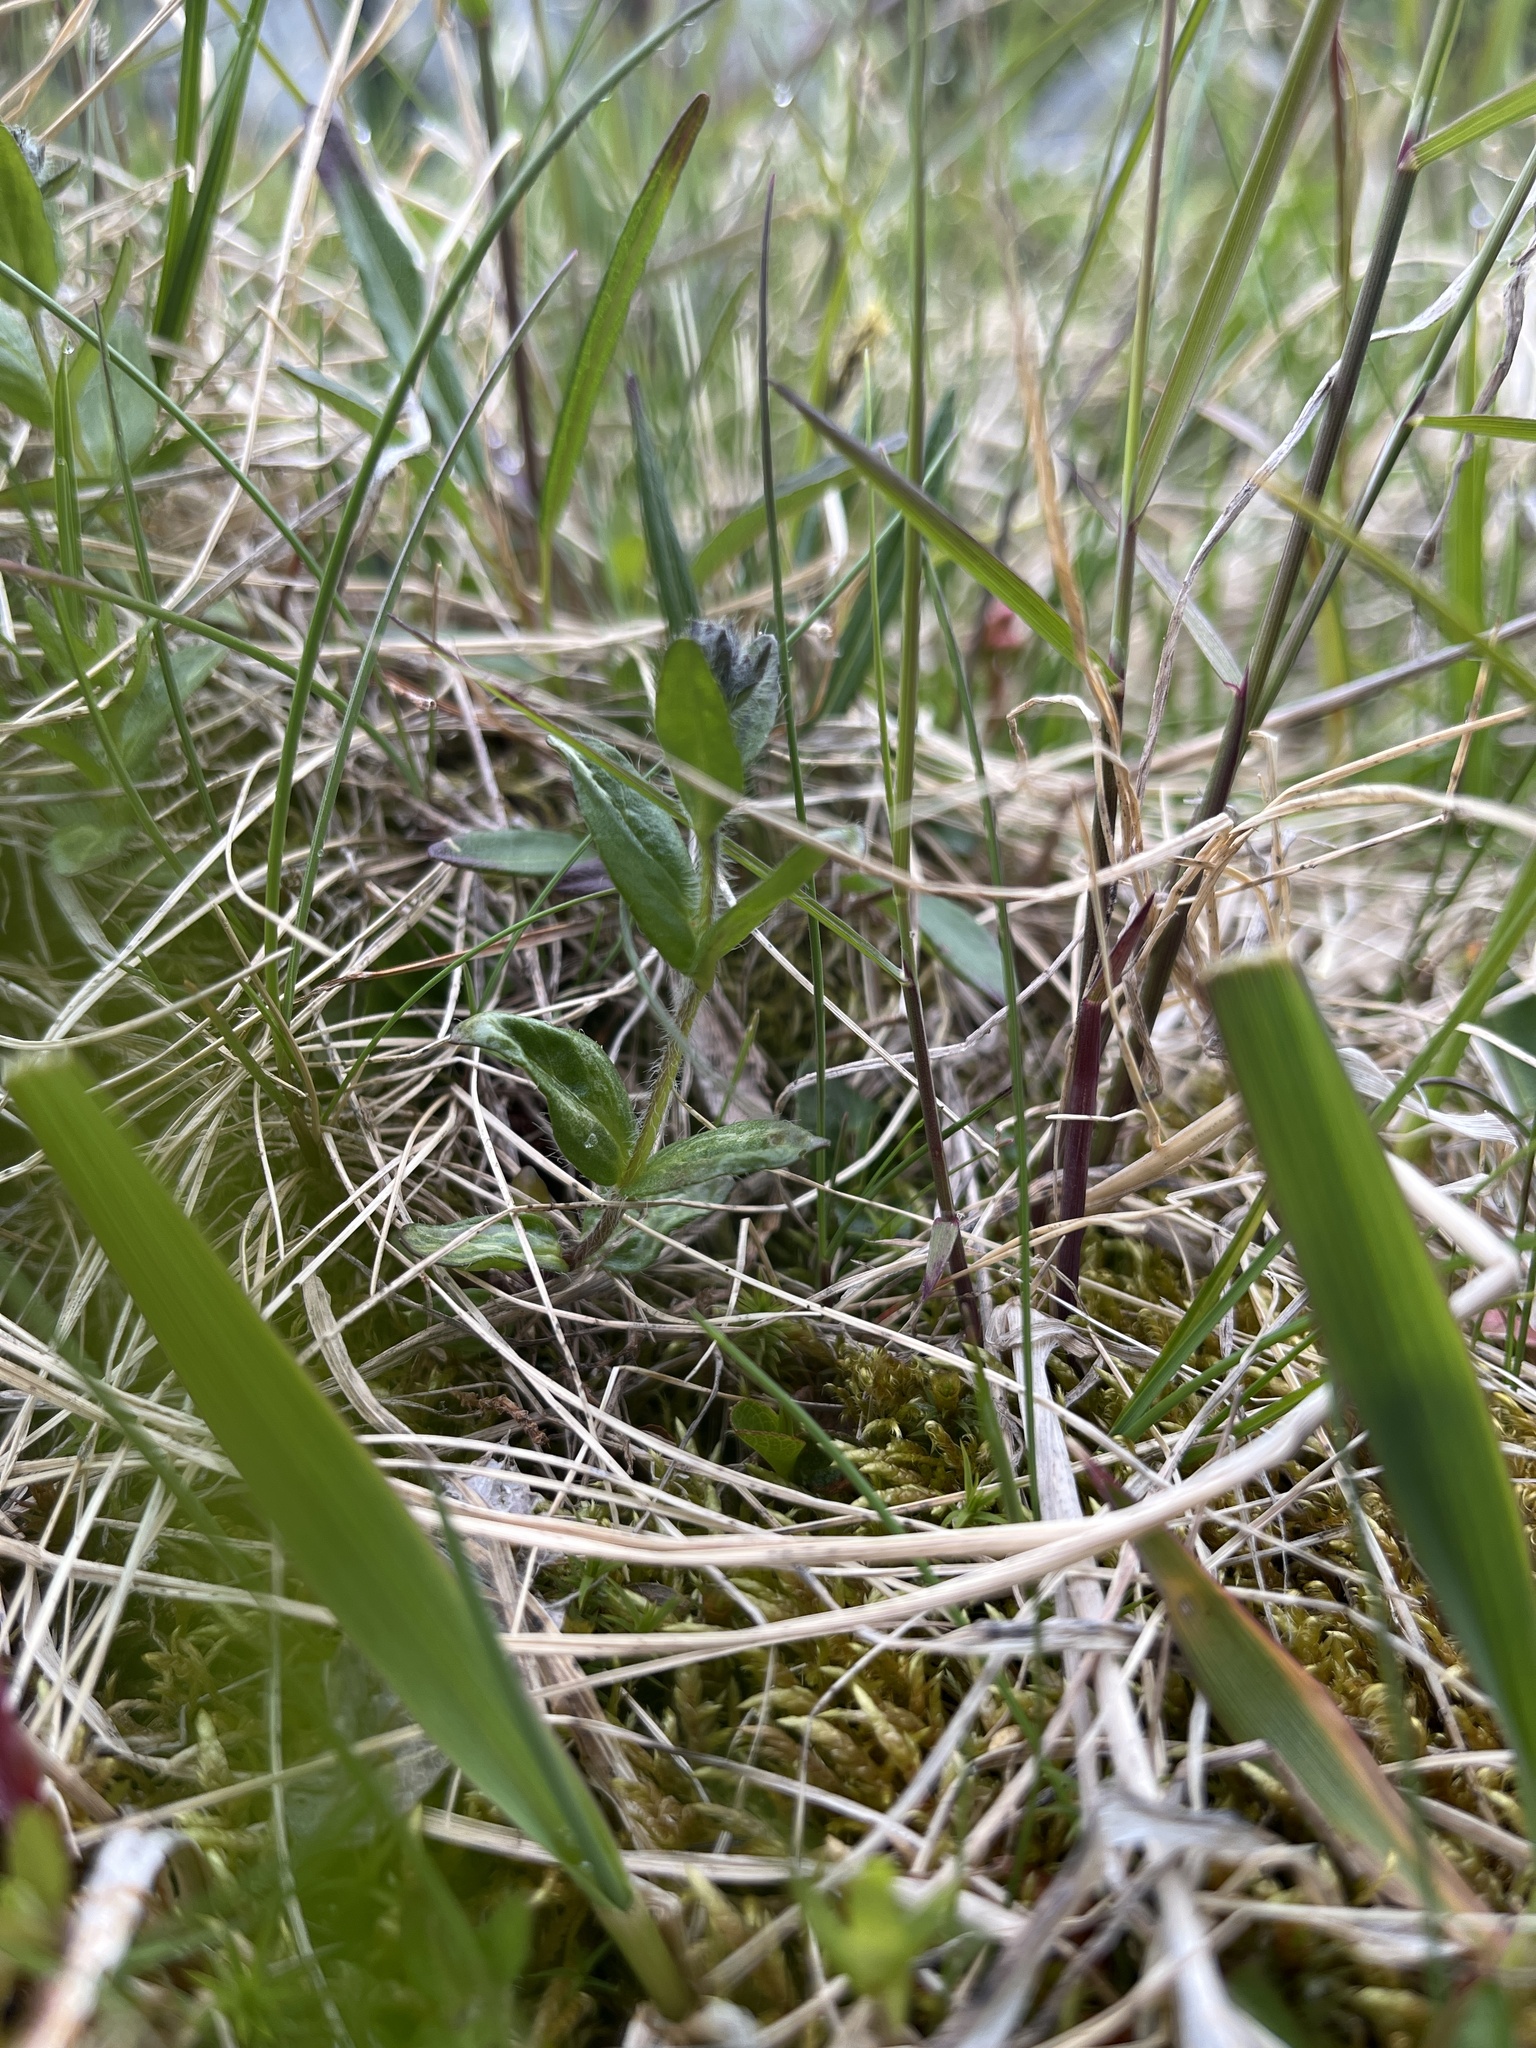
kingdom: Plantae
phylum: Tracheophyta
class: Magnoliopsida
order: Lamiales
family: Plantaginaceae
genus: Veronica
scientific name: Veronica wormskjoldii
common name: American alpine speedwell
